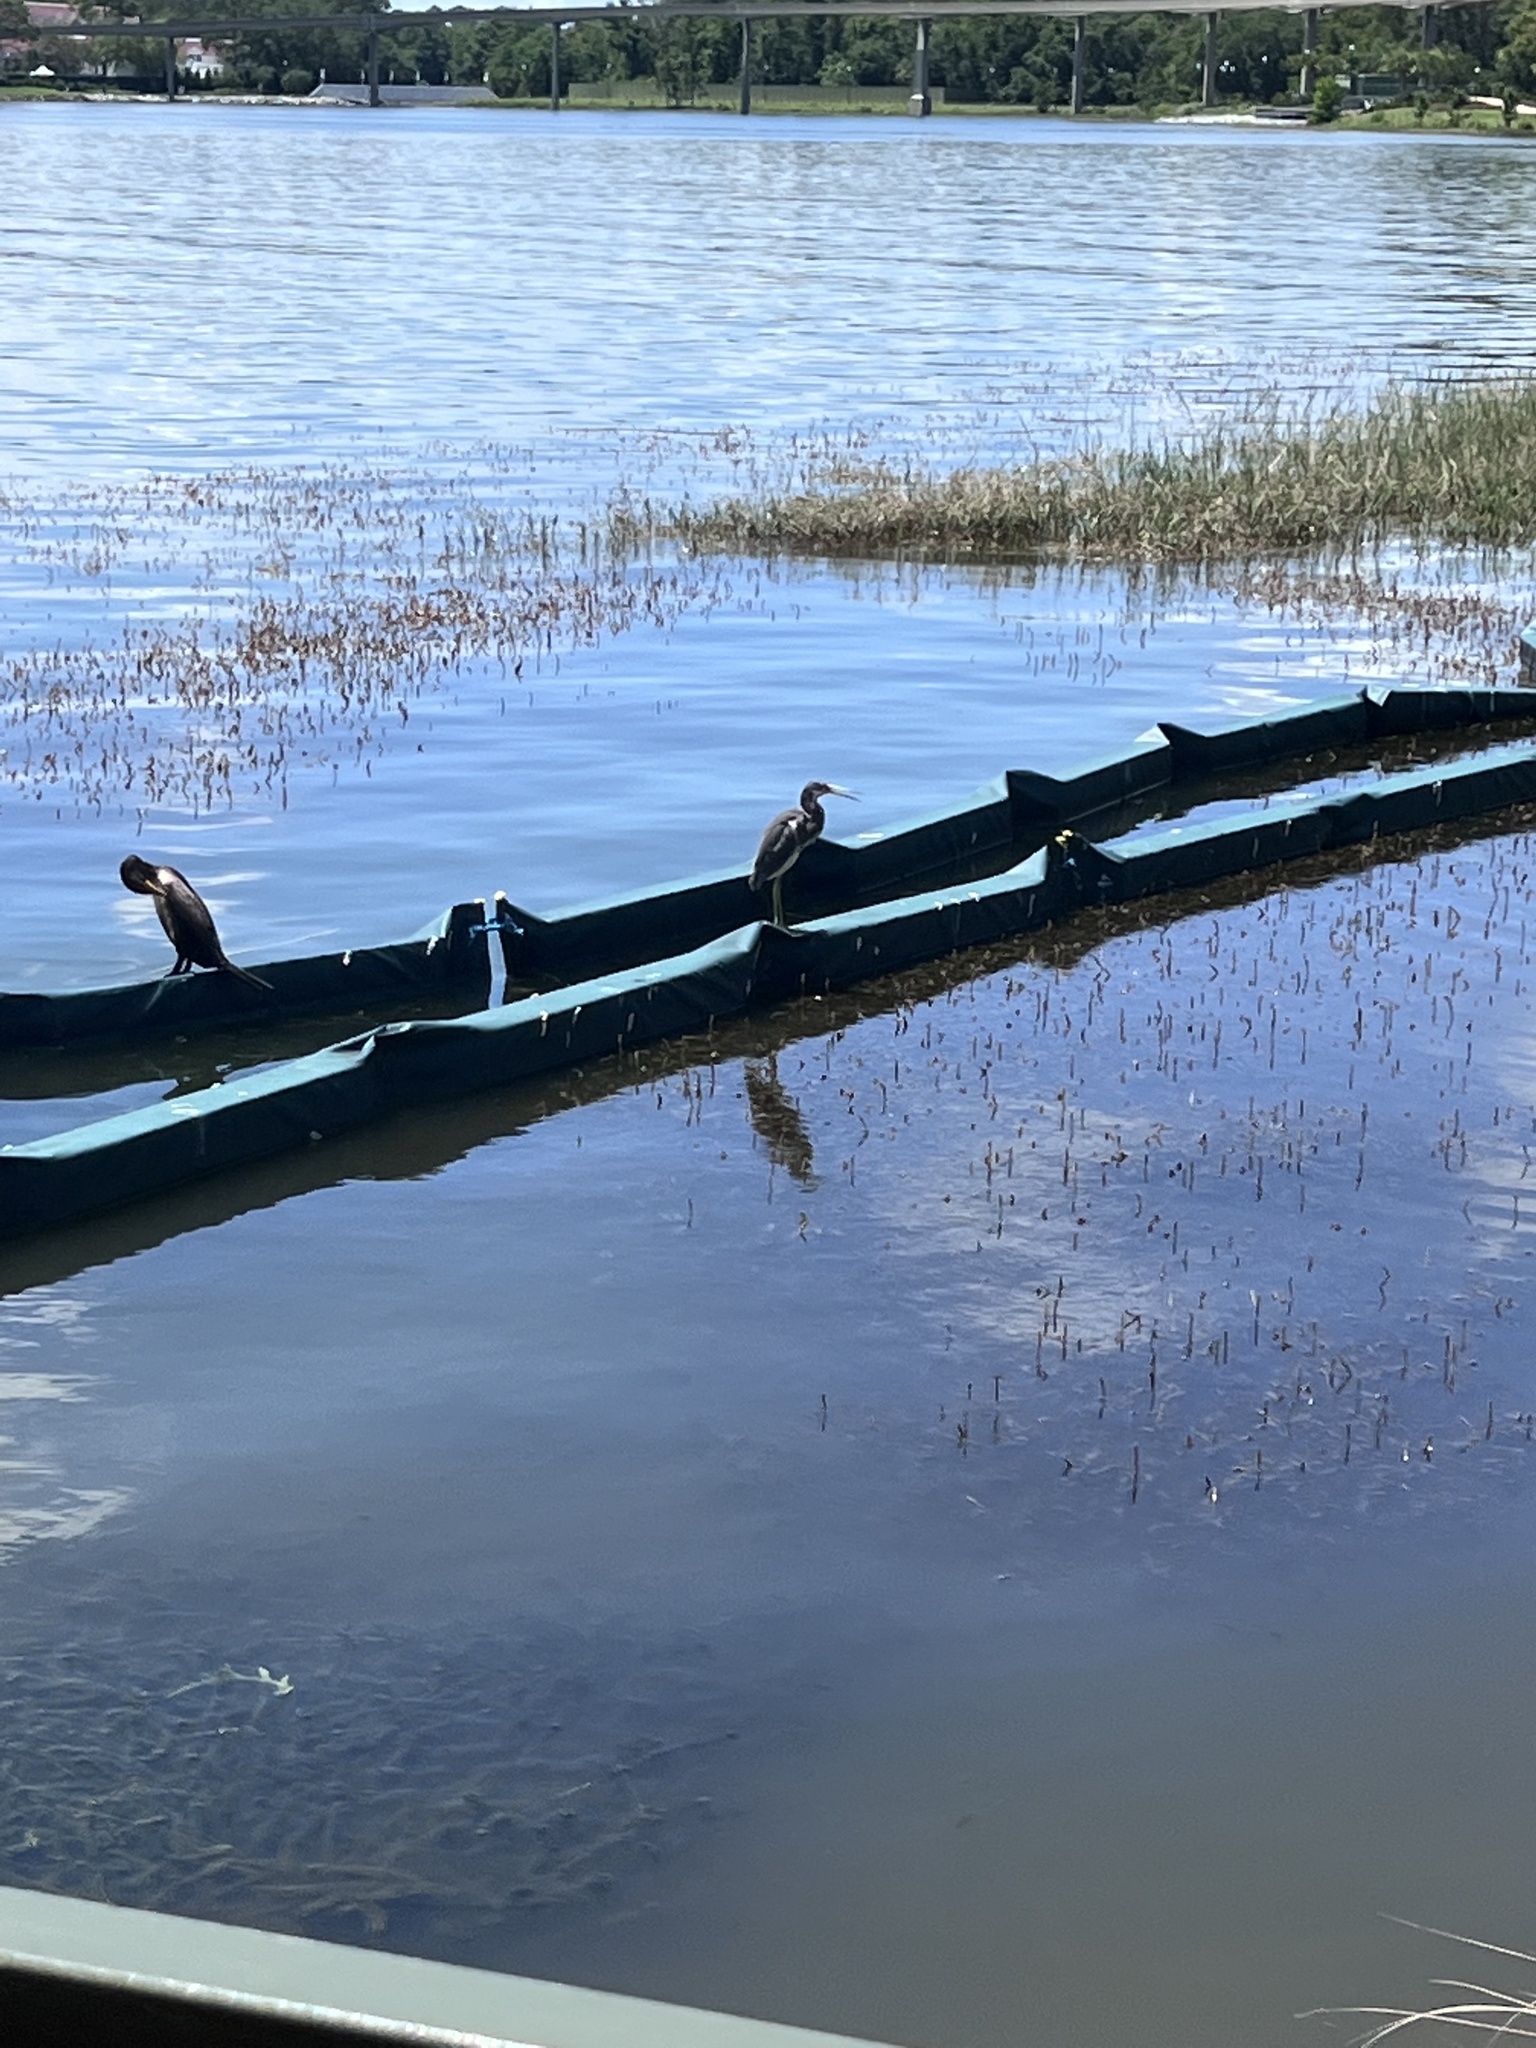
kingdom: Animalia
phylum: Chordata
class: Aves
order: Pelecaniformes
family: Ardeidae
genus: Egretta
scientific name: Egretta tricolor
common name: Tricolored heron
